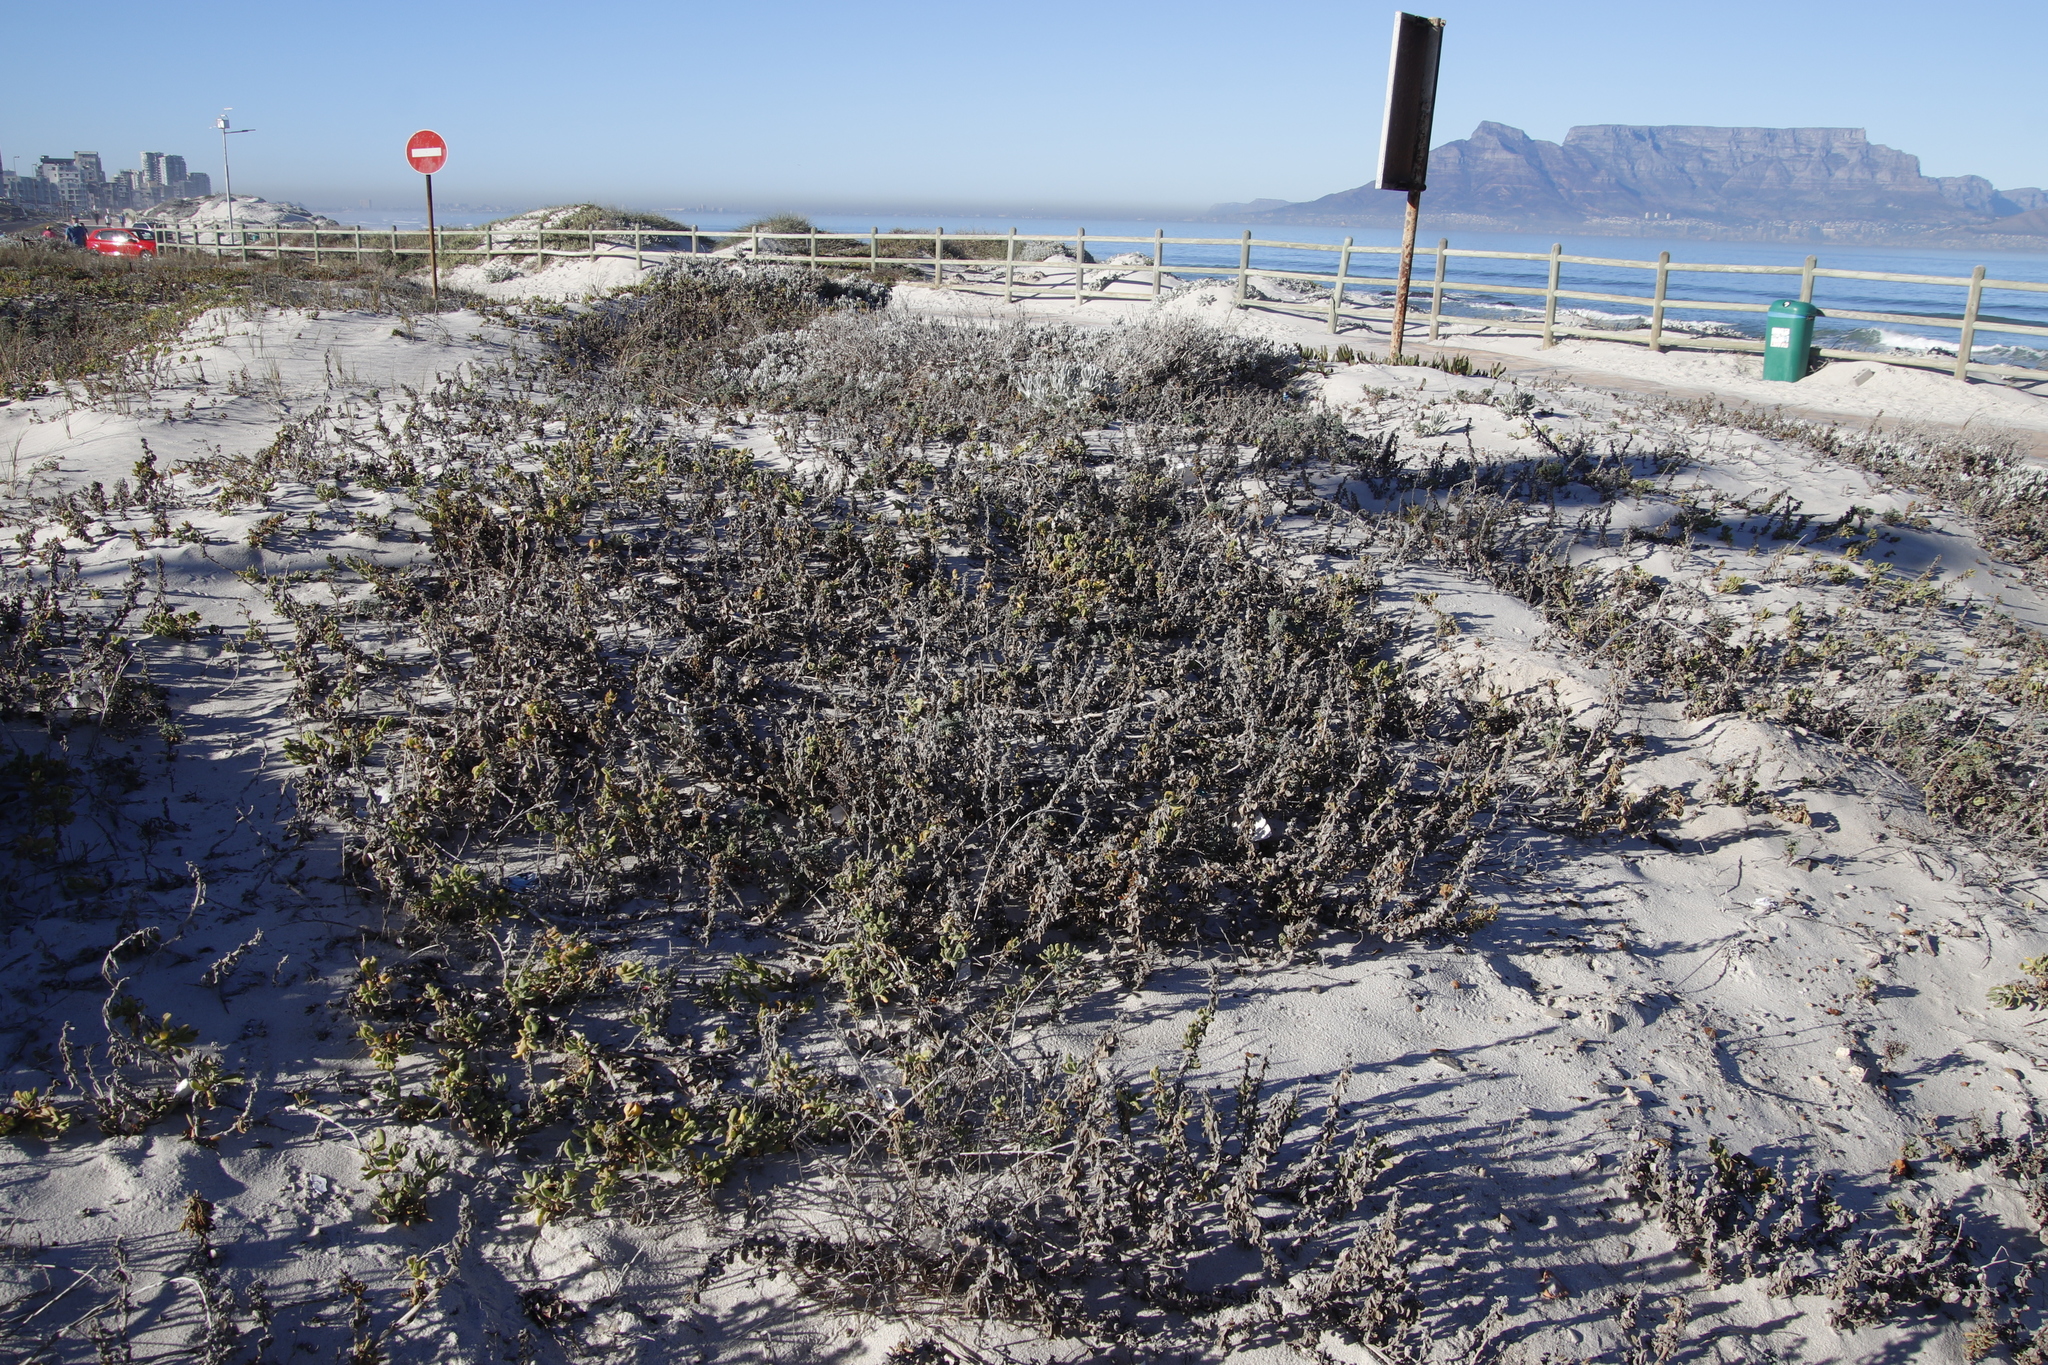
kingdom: Plantae
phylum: Tracheophyta
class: Magnoliopsida
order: Caryophyllales
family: Aizoaceae
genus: Tetragonia
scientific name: Tetragonia decumbens
